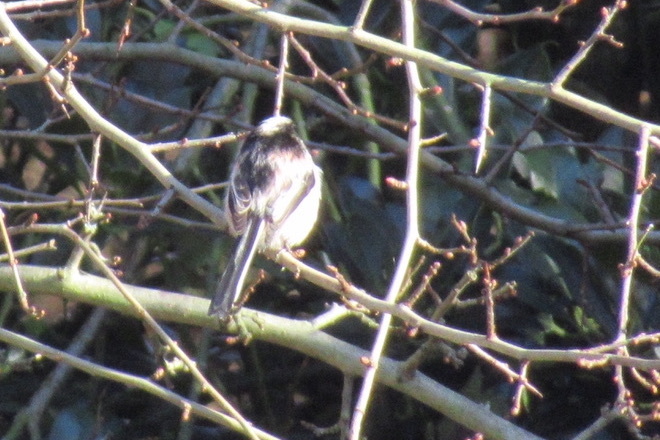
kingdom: Animalia
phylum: Chordata
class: Aves
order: Passeriformes
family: Aegithalidae
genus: Aegithalos
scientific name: Aegithalos caudatus
